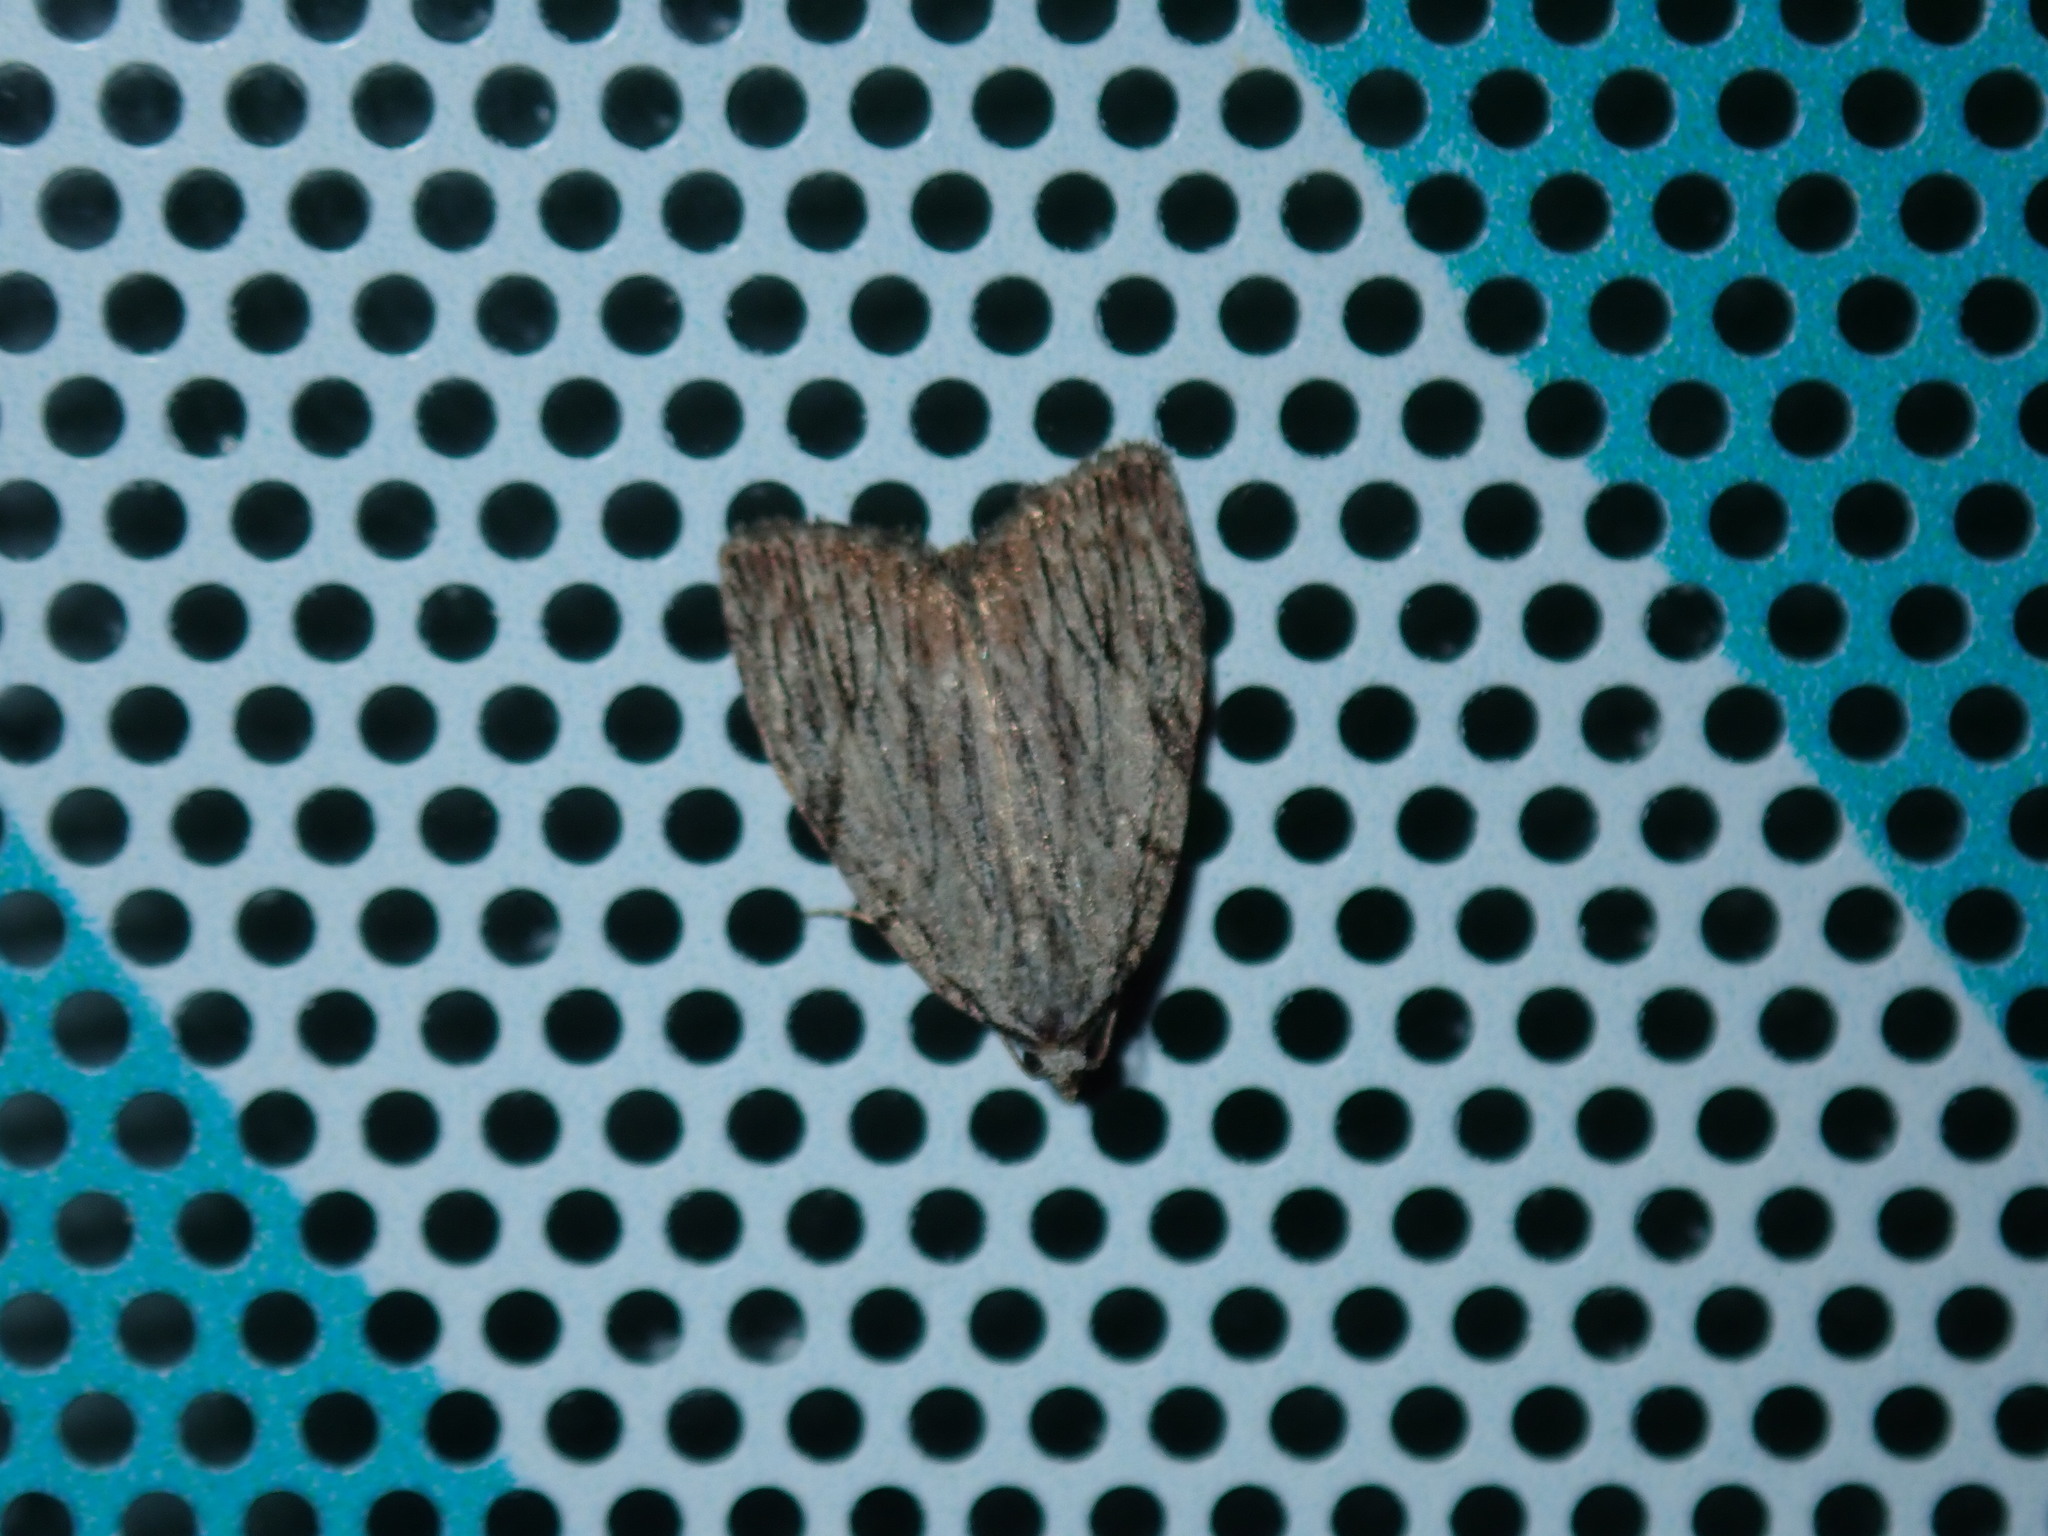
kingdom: Animalia
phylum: Arthropoda
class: Insecta
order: Lepidoptera
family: Noctuidae
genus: Balsa
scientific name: Balsa tristrigella
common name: Three-lined balsa moth
